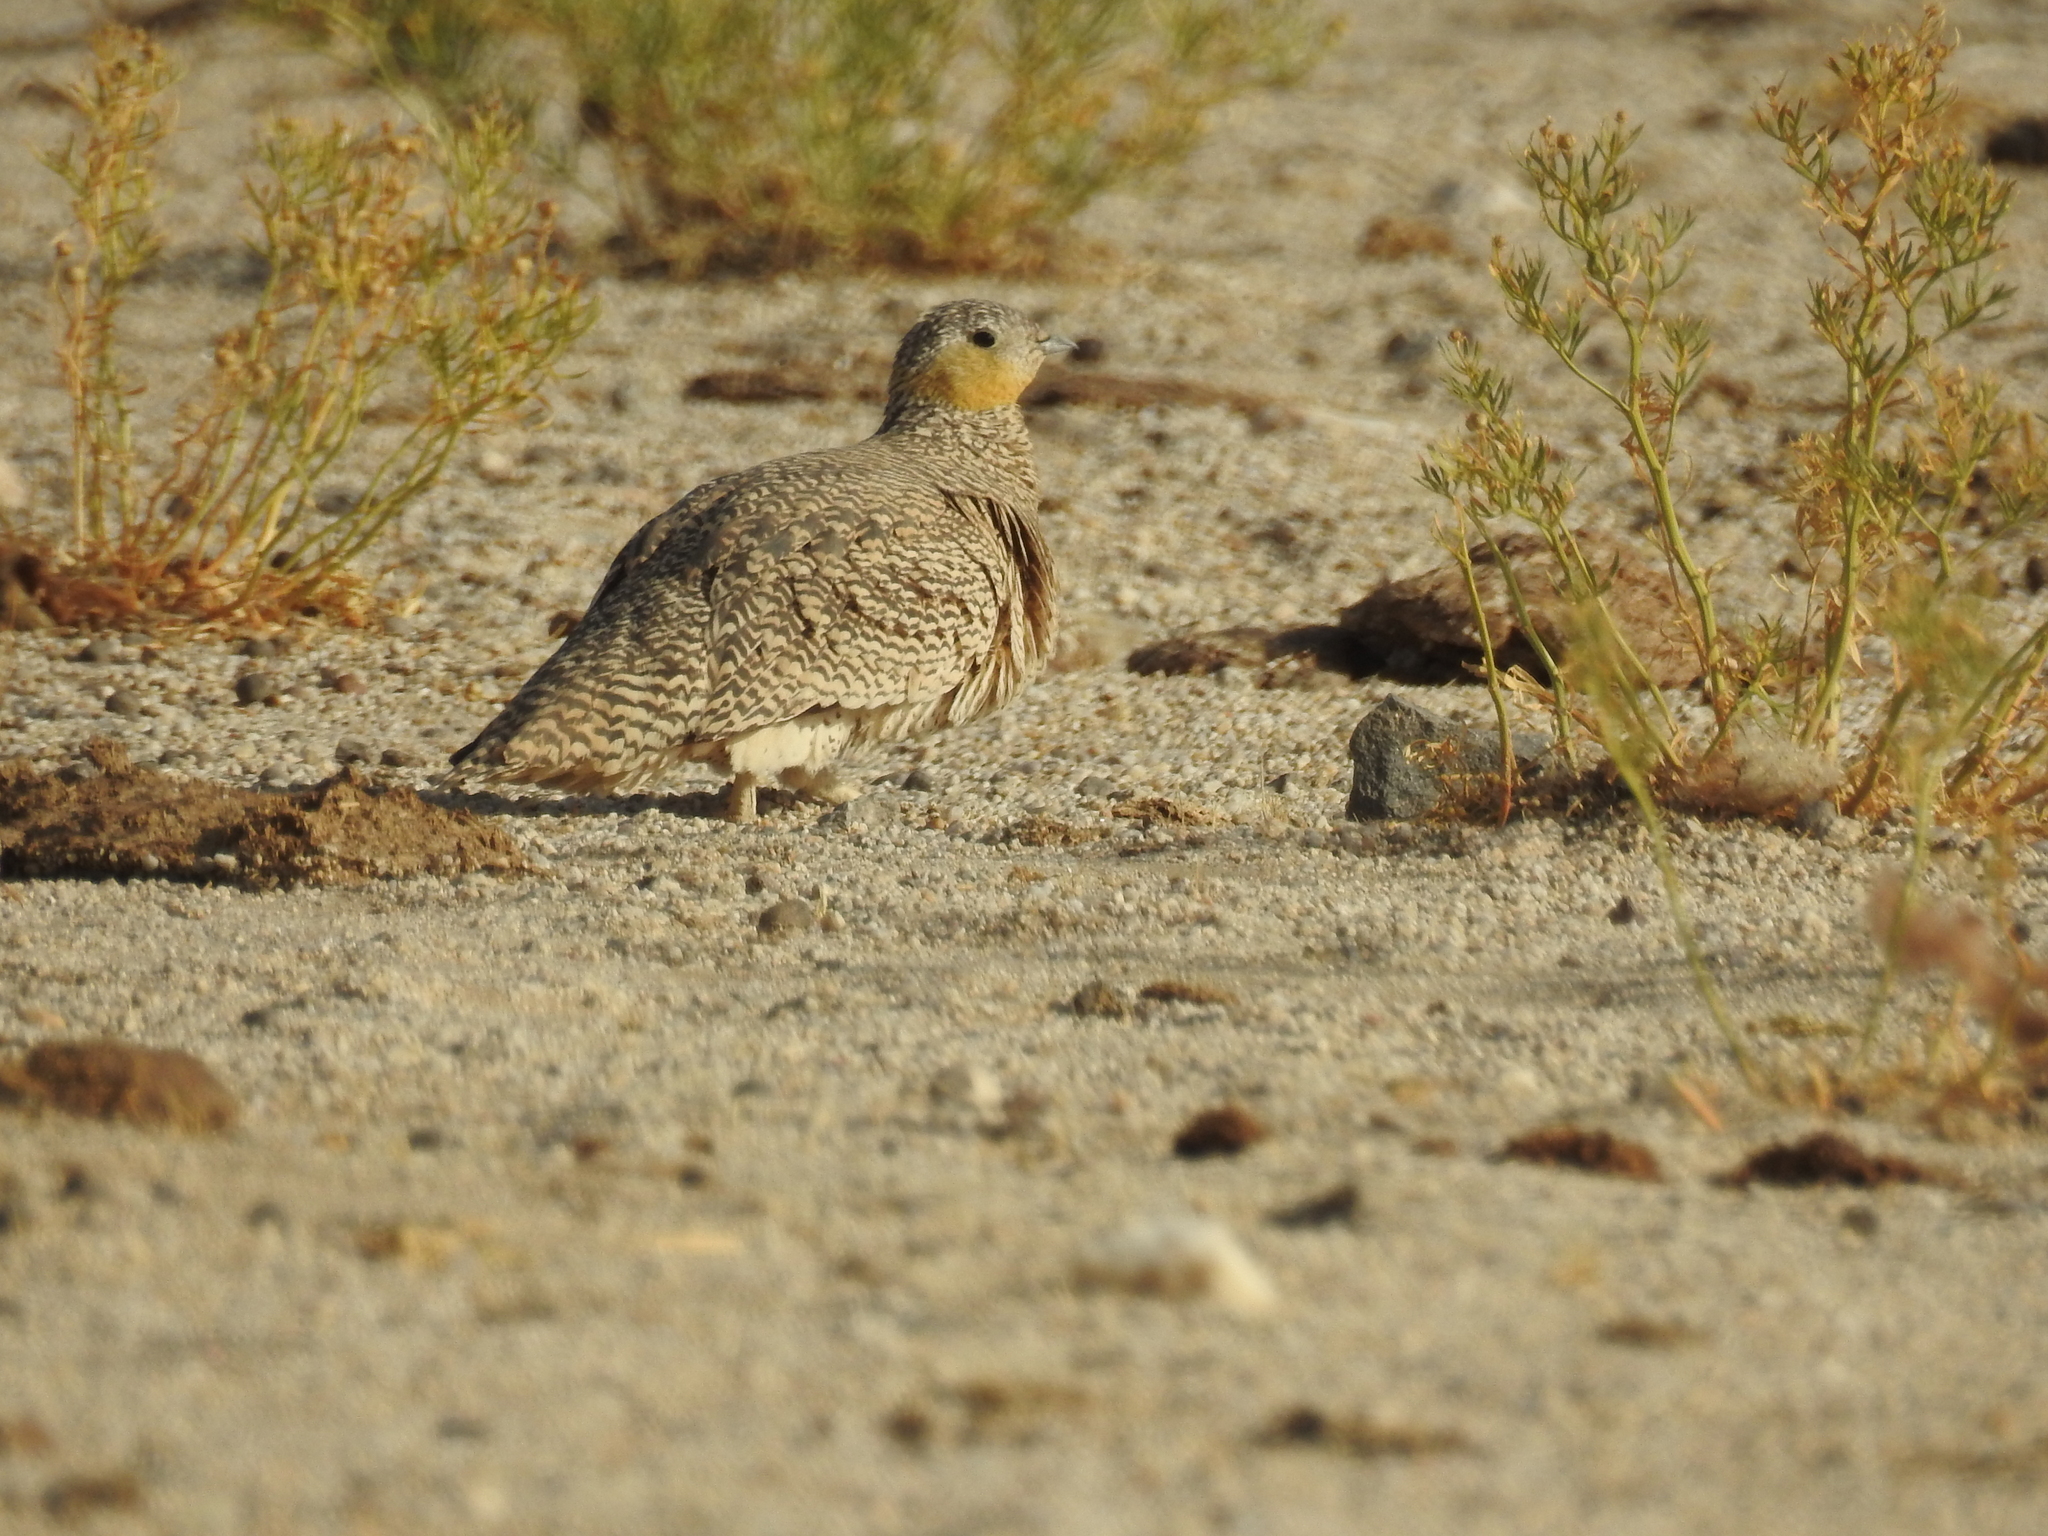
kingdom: Animalia
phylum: Chordata
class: Aves
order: Pteroclidiformes
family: Pteroclididae
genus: Pterocles
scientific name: Pterocles coronatus
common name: Crowned sandgrouse
